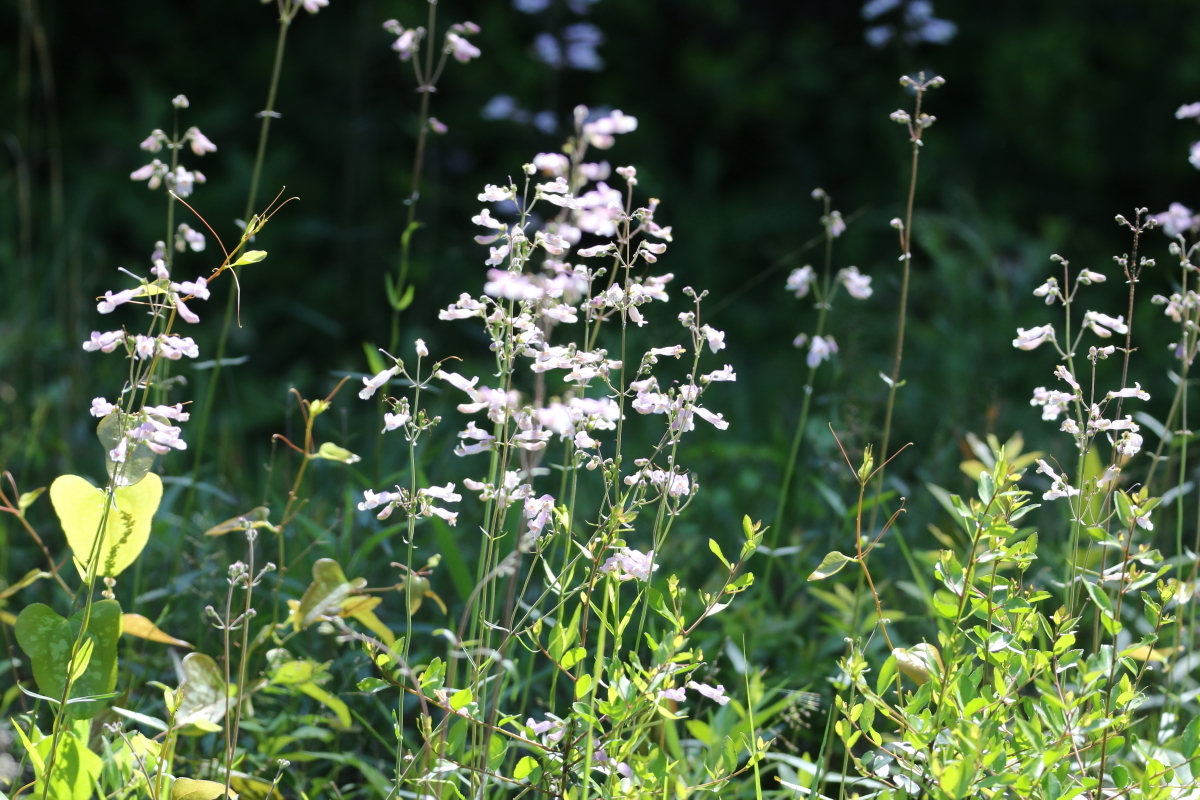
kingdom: Plantae
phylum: Tracheophyta
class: Magnoliopsida
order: Lamiales
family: Plantaginaceae
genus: Penstemon
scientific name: Penstemon laxiflorus
